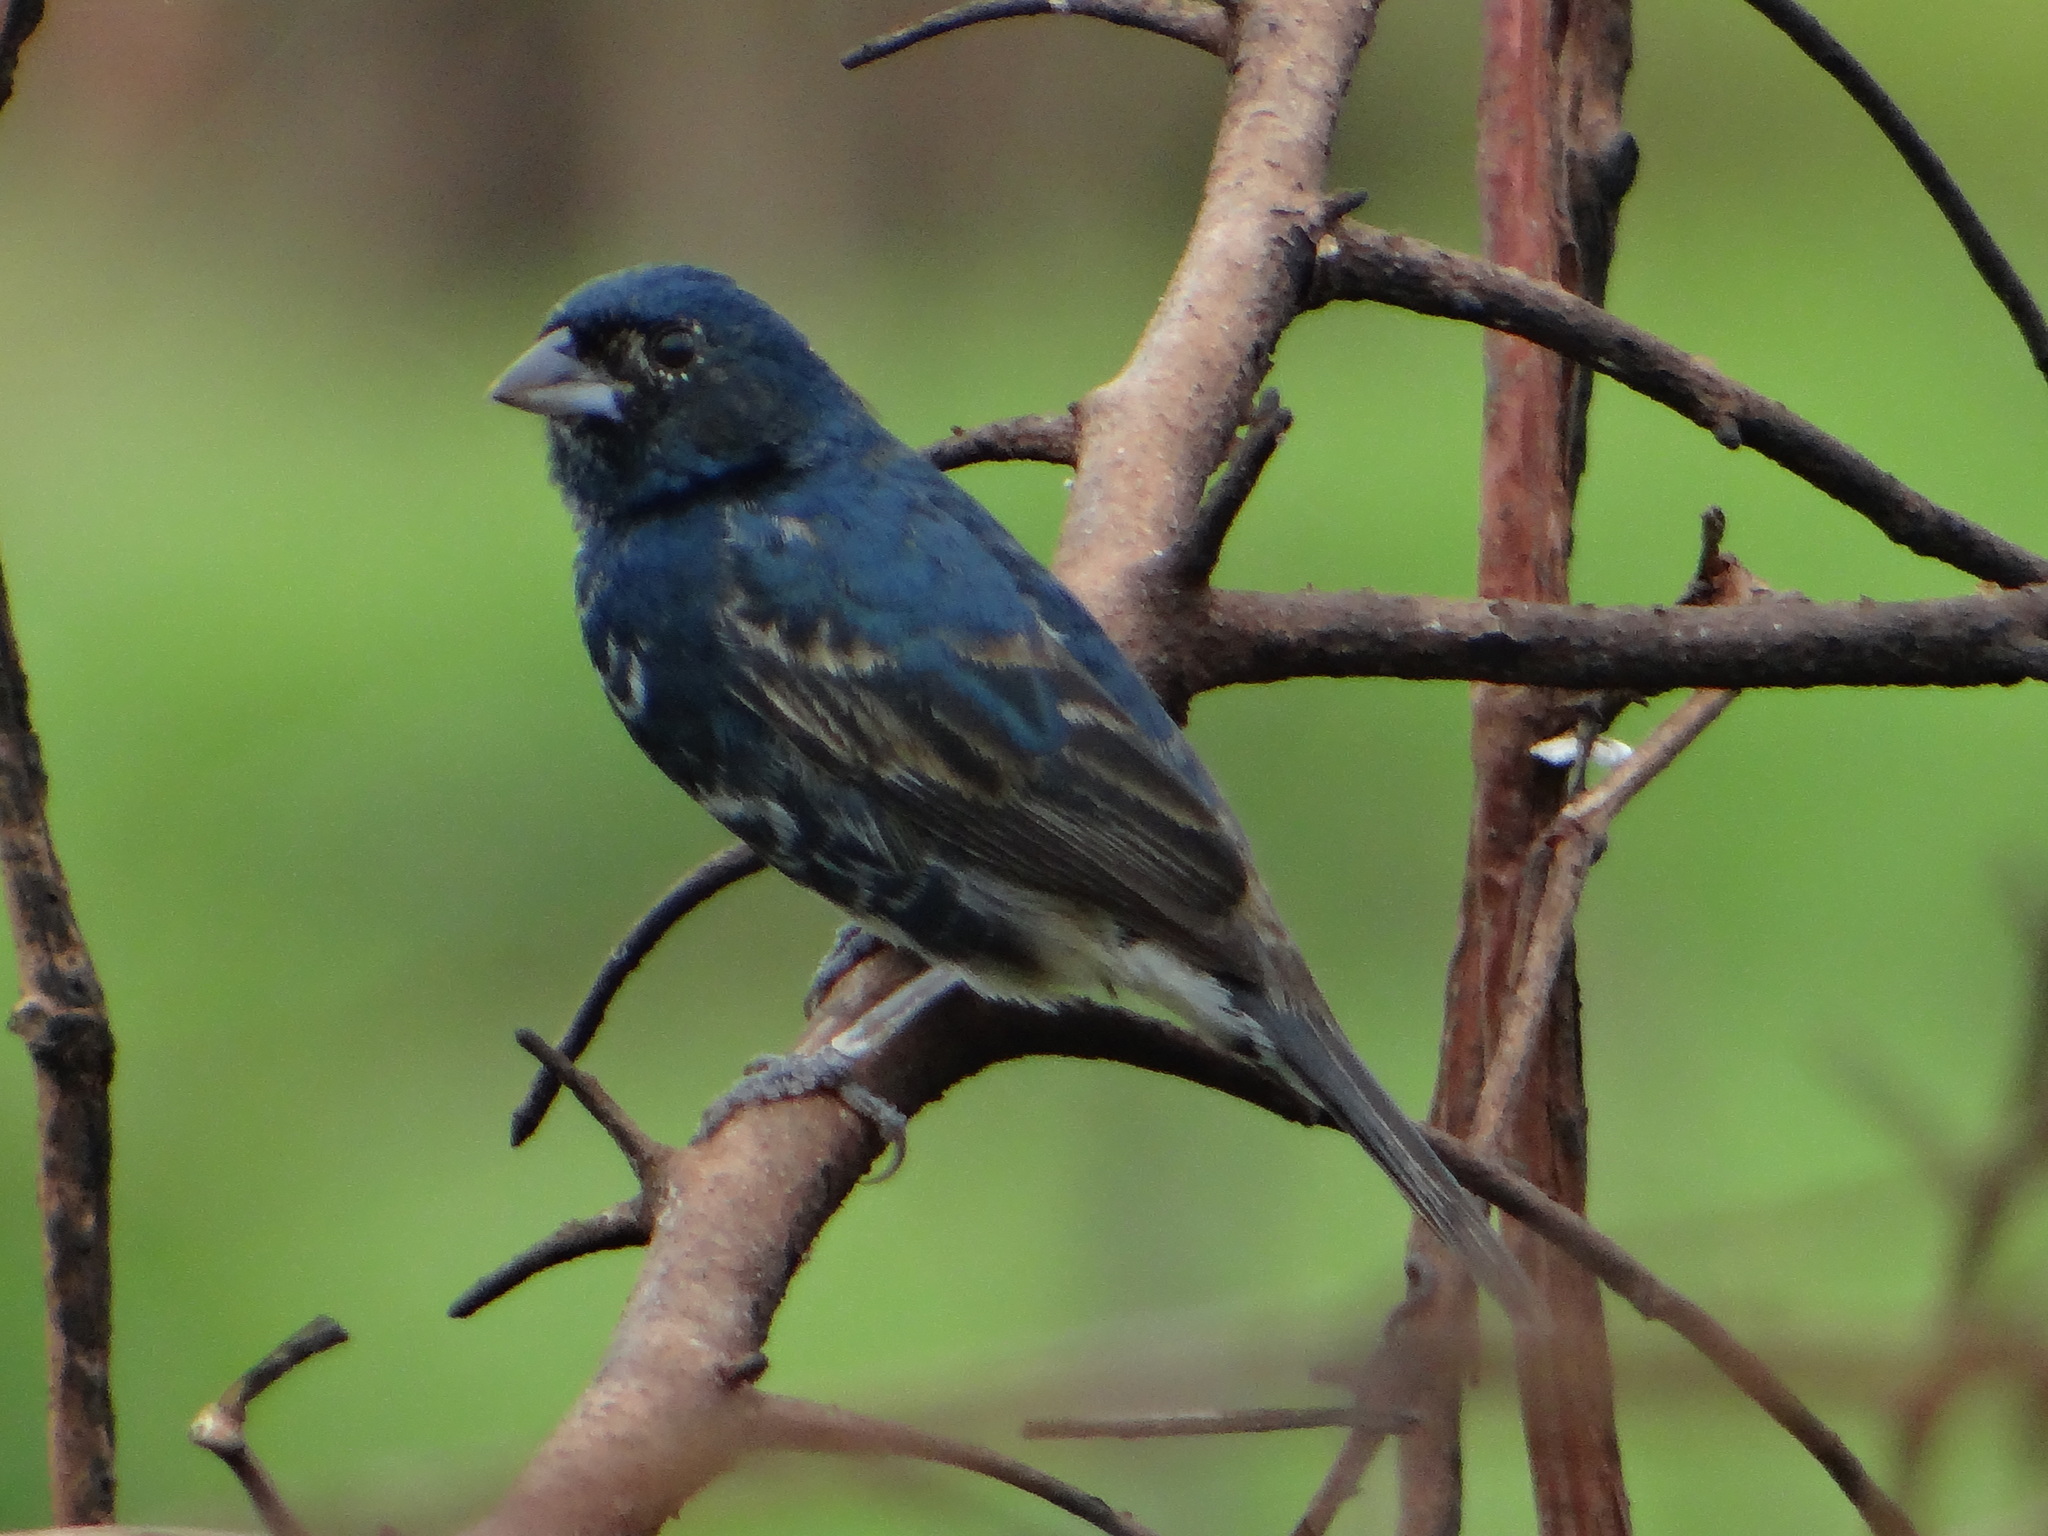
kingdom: Animalia
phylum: Chordata
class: Aves
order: Passeriformes
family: Thraupidae
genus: Volatinia
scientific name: Volatinia jacarina
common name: Blue-black grassquit
